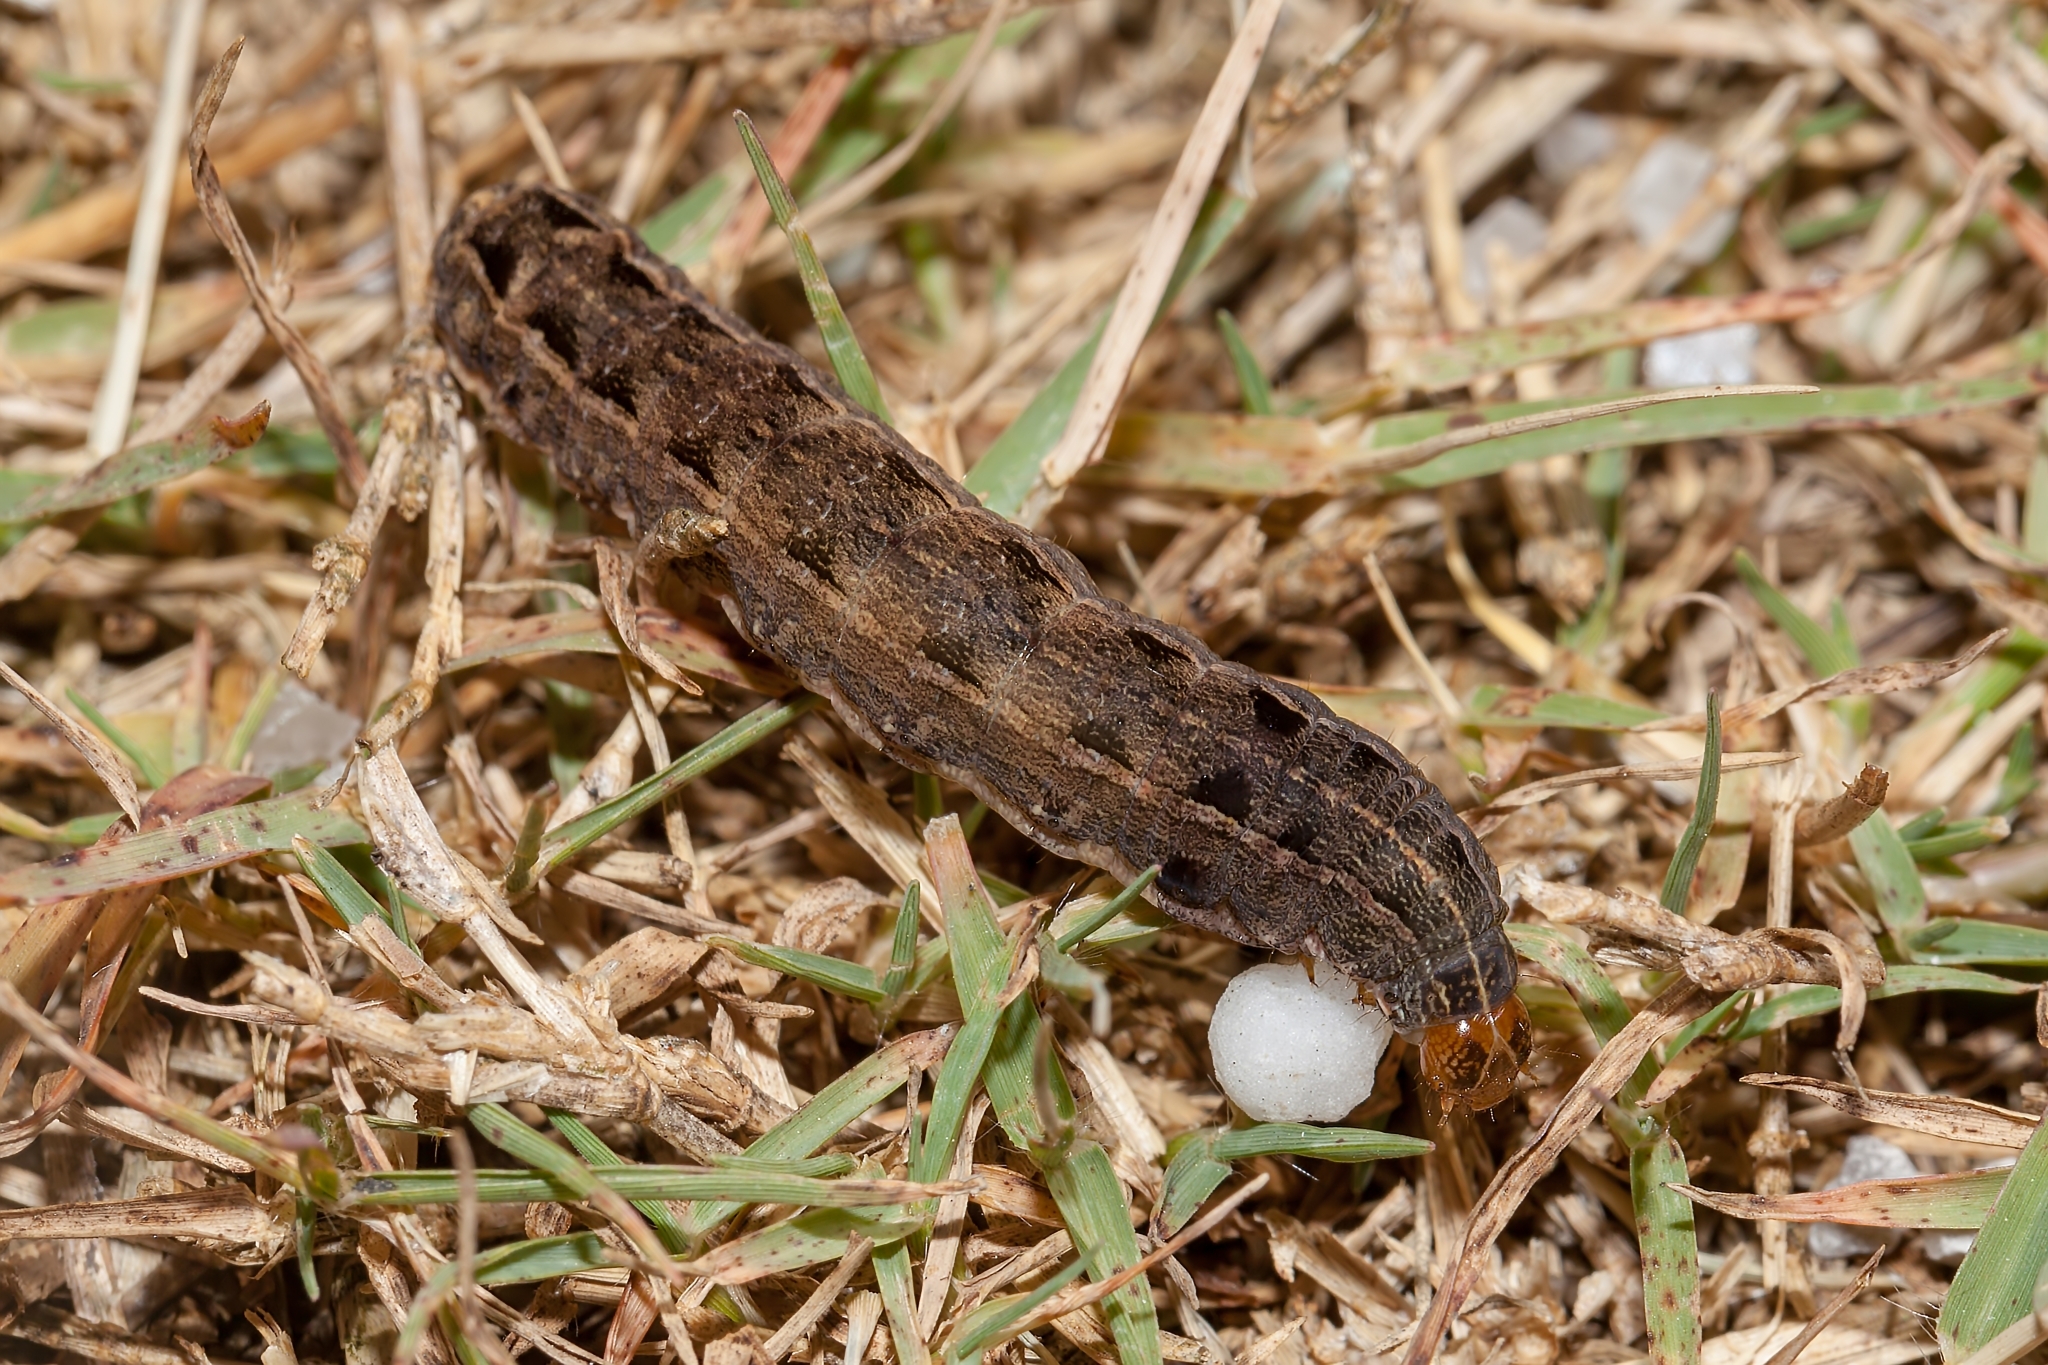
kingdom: Animalia
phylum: Arthropoda
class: Insecta
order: Lepidoptera
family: Noctuidae
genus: Spodoptera
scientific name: Spodoptera ornithogalli
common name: Yellow-striped armyworm
